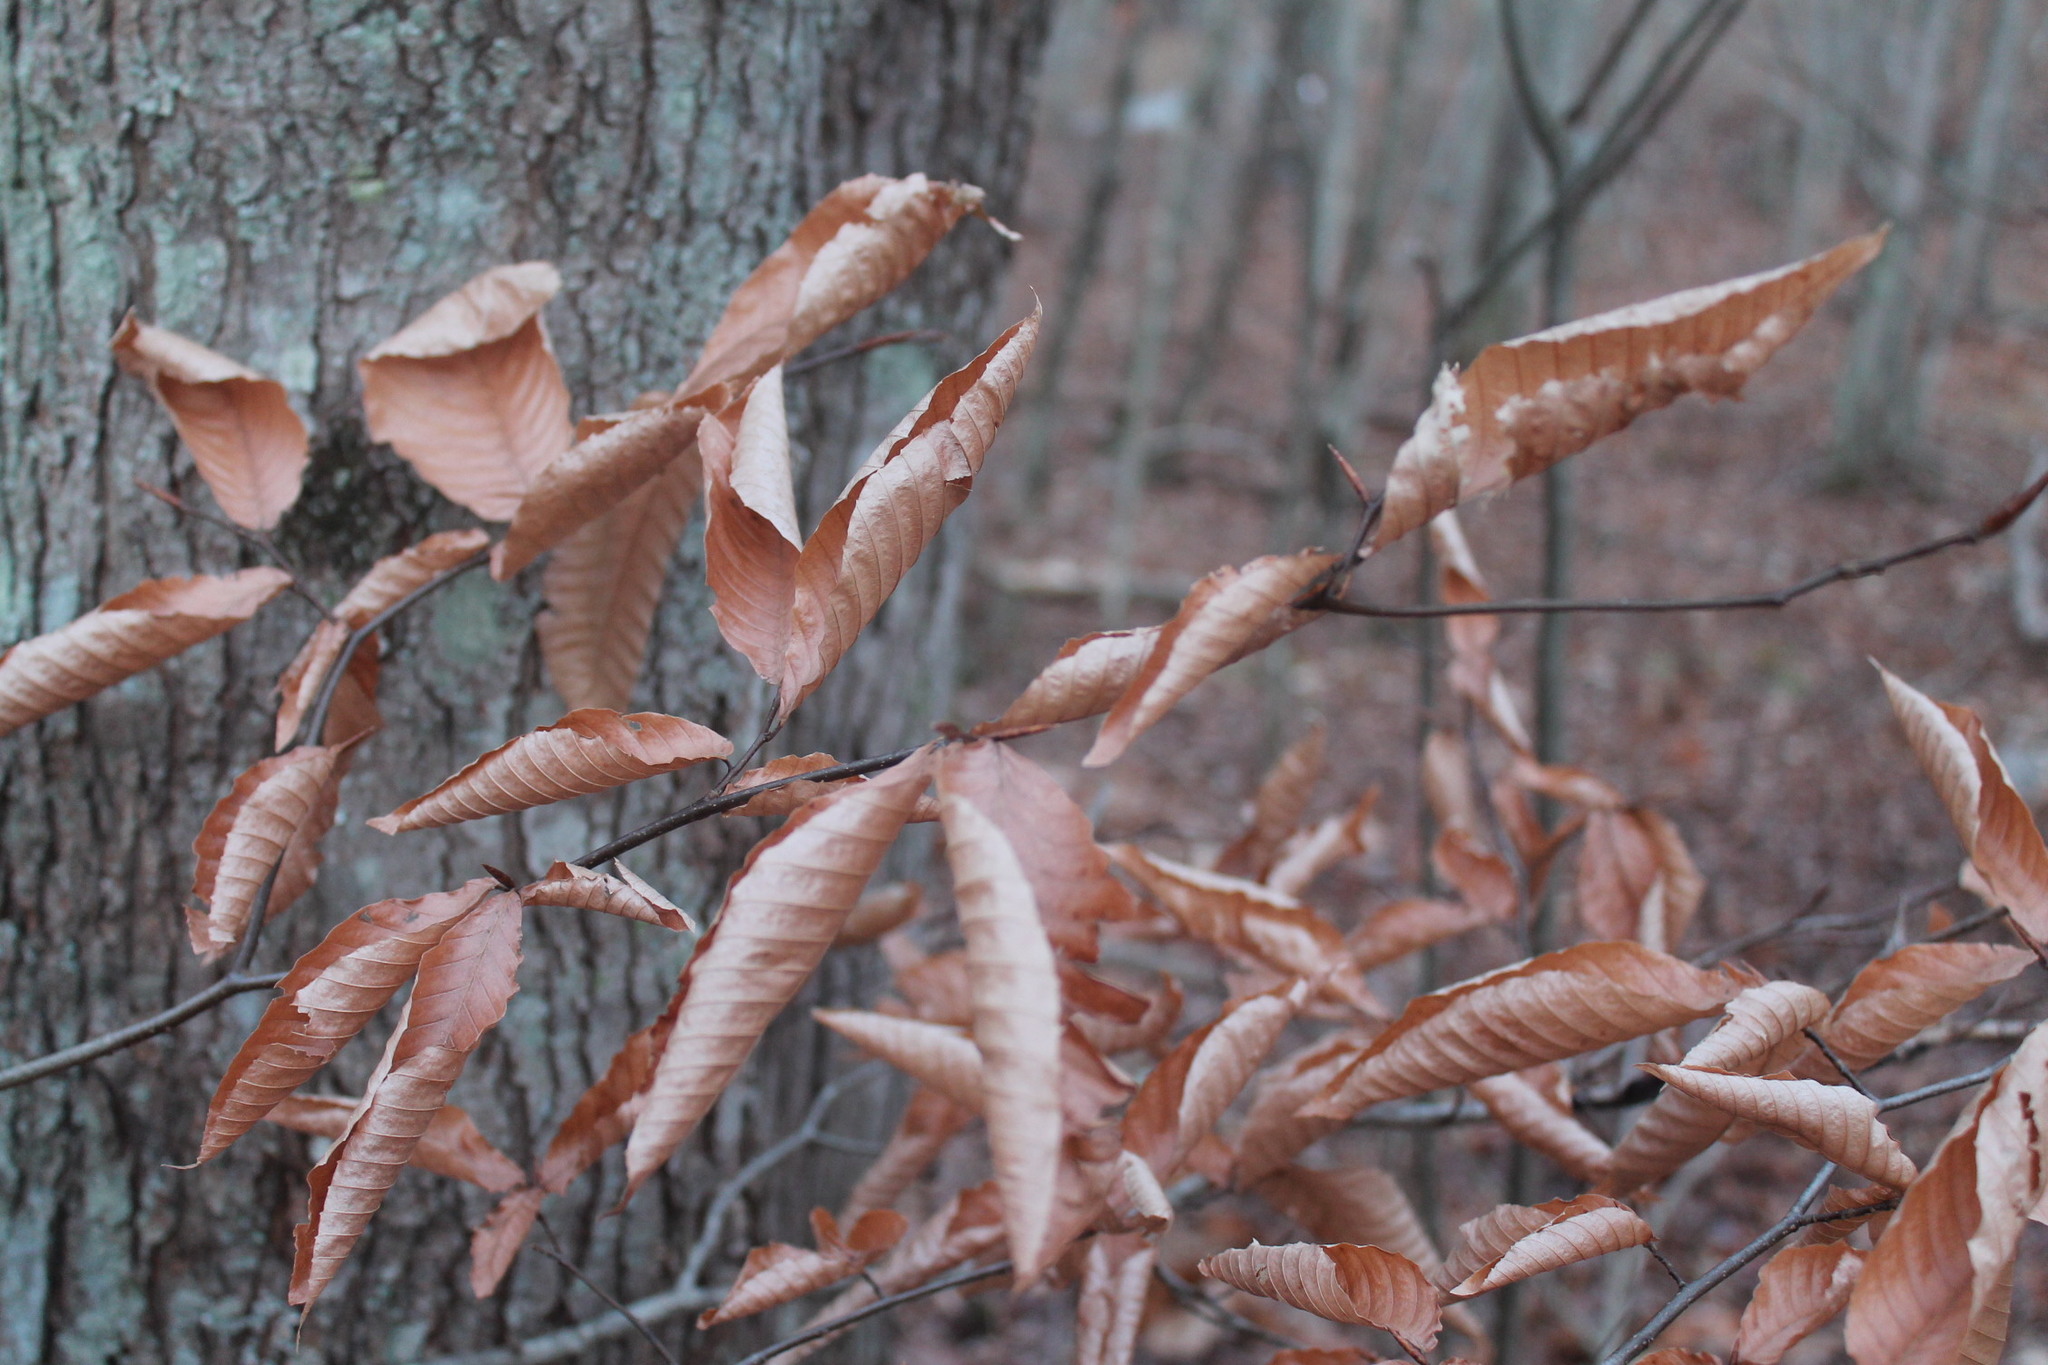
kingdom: Plantae
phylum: Tracheophyta
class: Magnoliopsida
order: Fagales
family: Fagaceae
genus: Fagus
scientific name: Fagus grandifolia
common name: American beech
